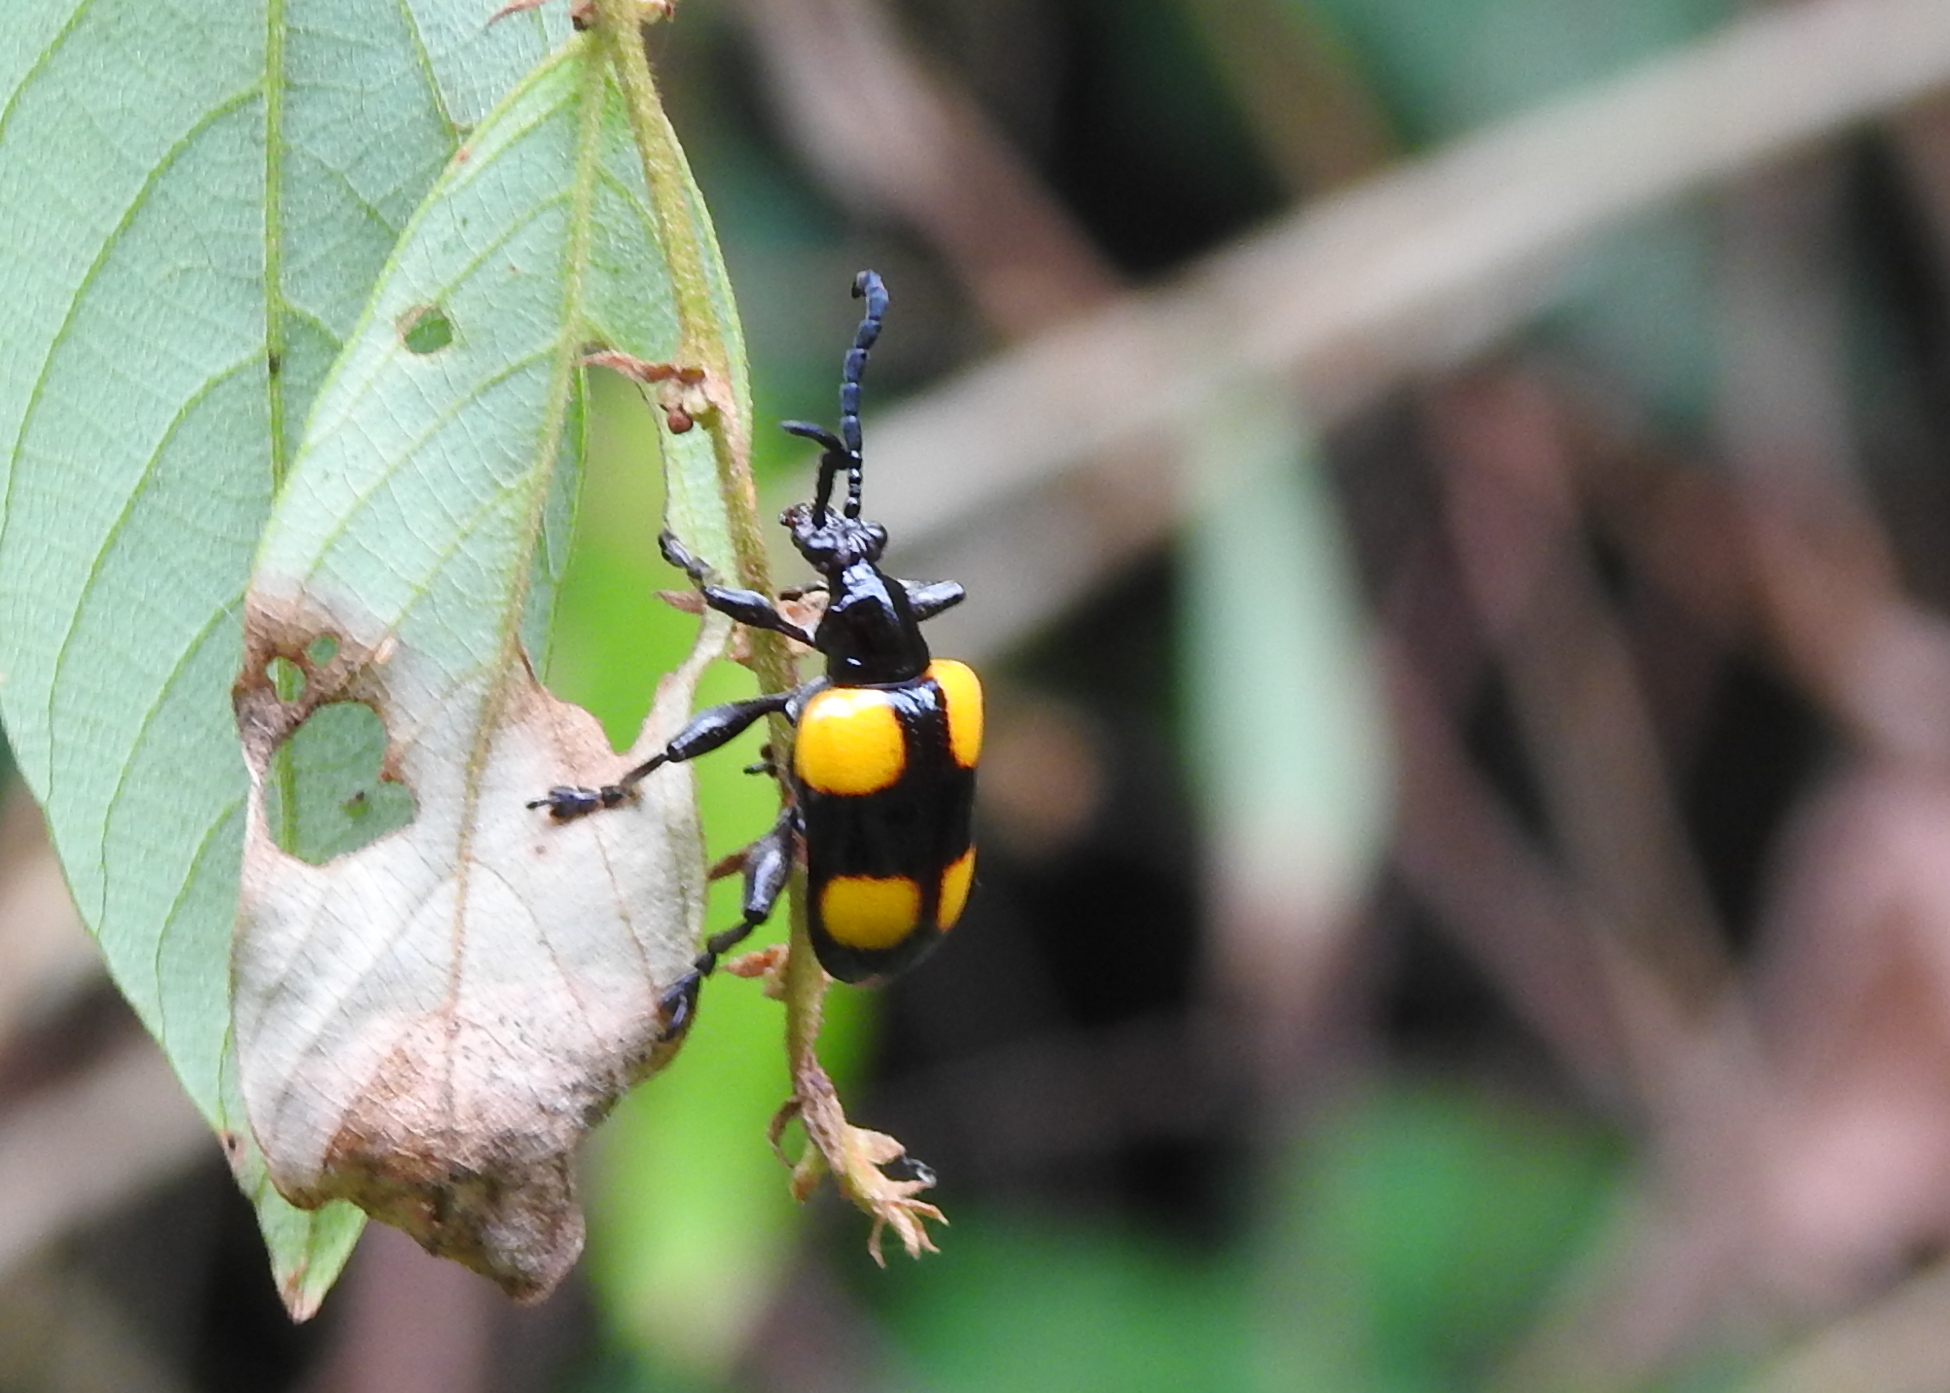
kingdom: Animalia
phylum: Arthropoda
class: Insecta
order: Coleoptera
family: Chrysomelidae
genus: Lilioceris
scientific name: Lilioceris
